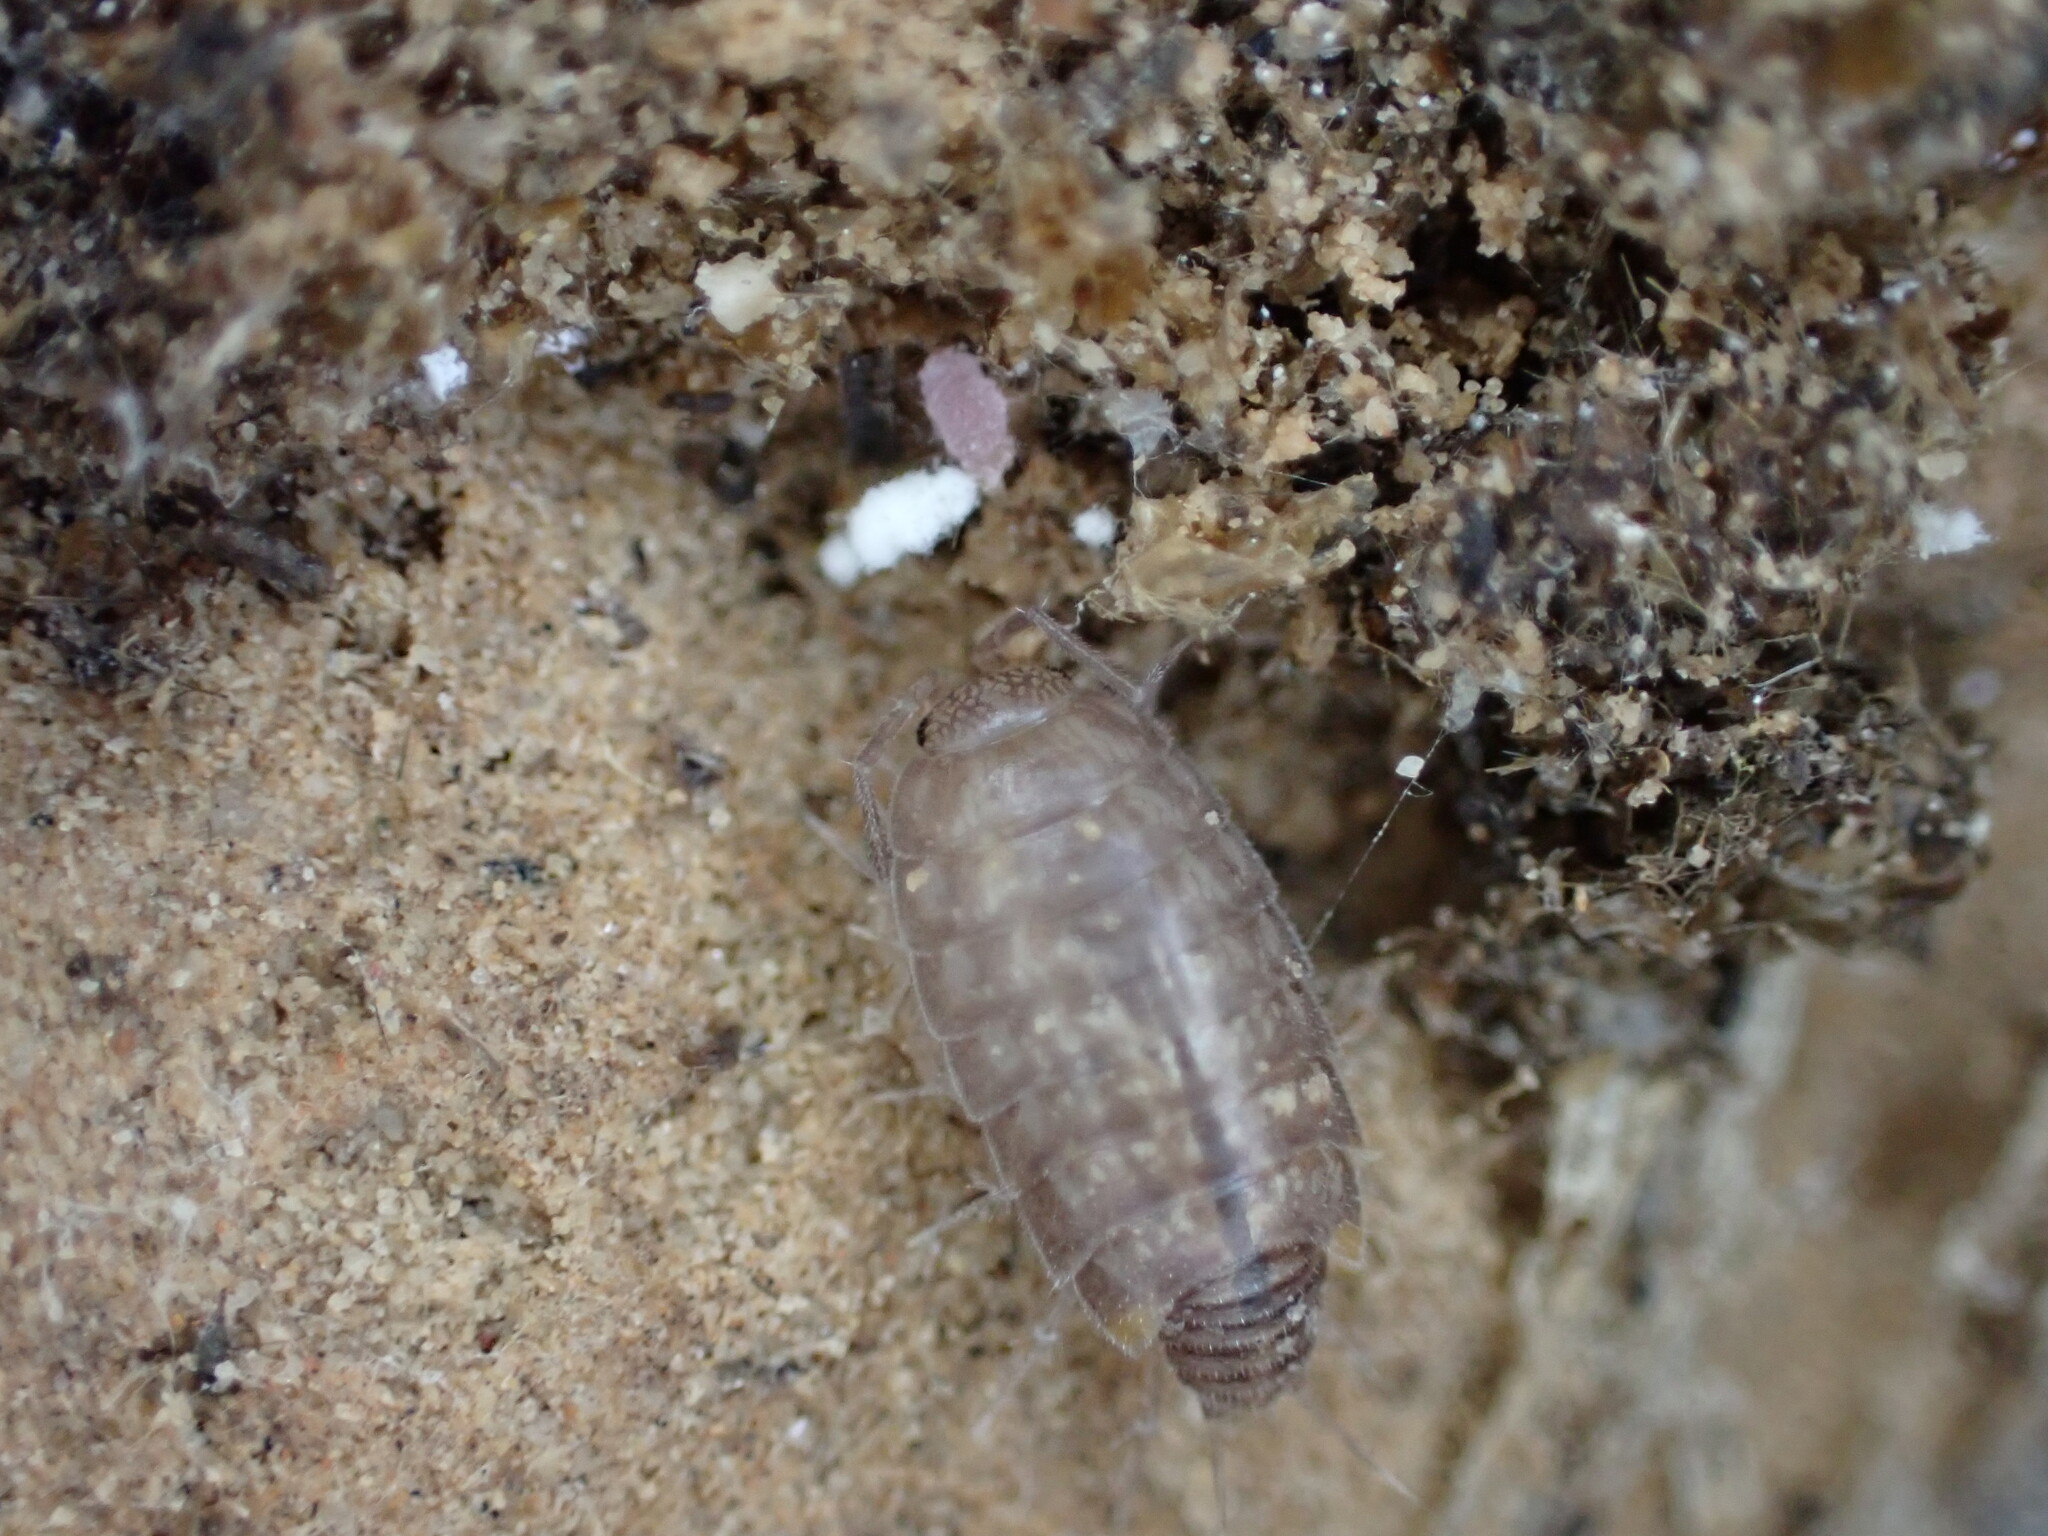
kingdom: Animalia
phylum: Arthropoda
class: Malacostraca
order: Isopoda
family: Philosciidae
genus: Chaetophiloscia
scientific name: Chaetophiloscia cellaria
